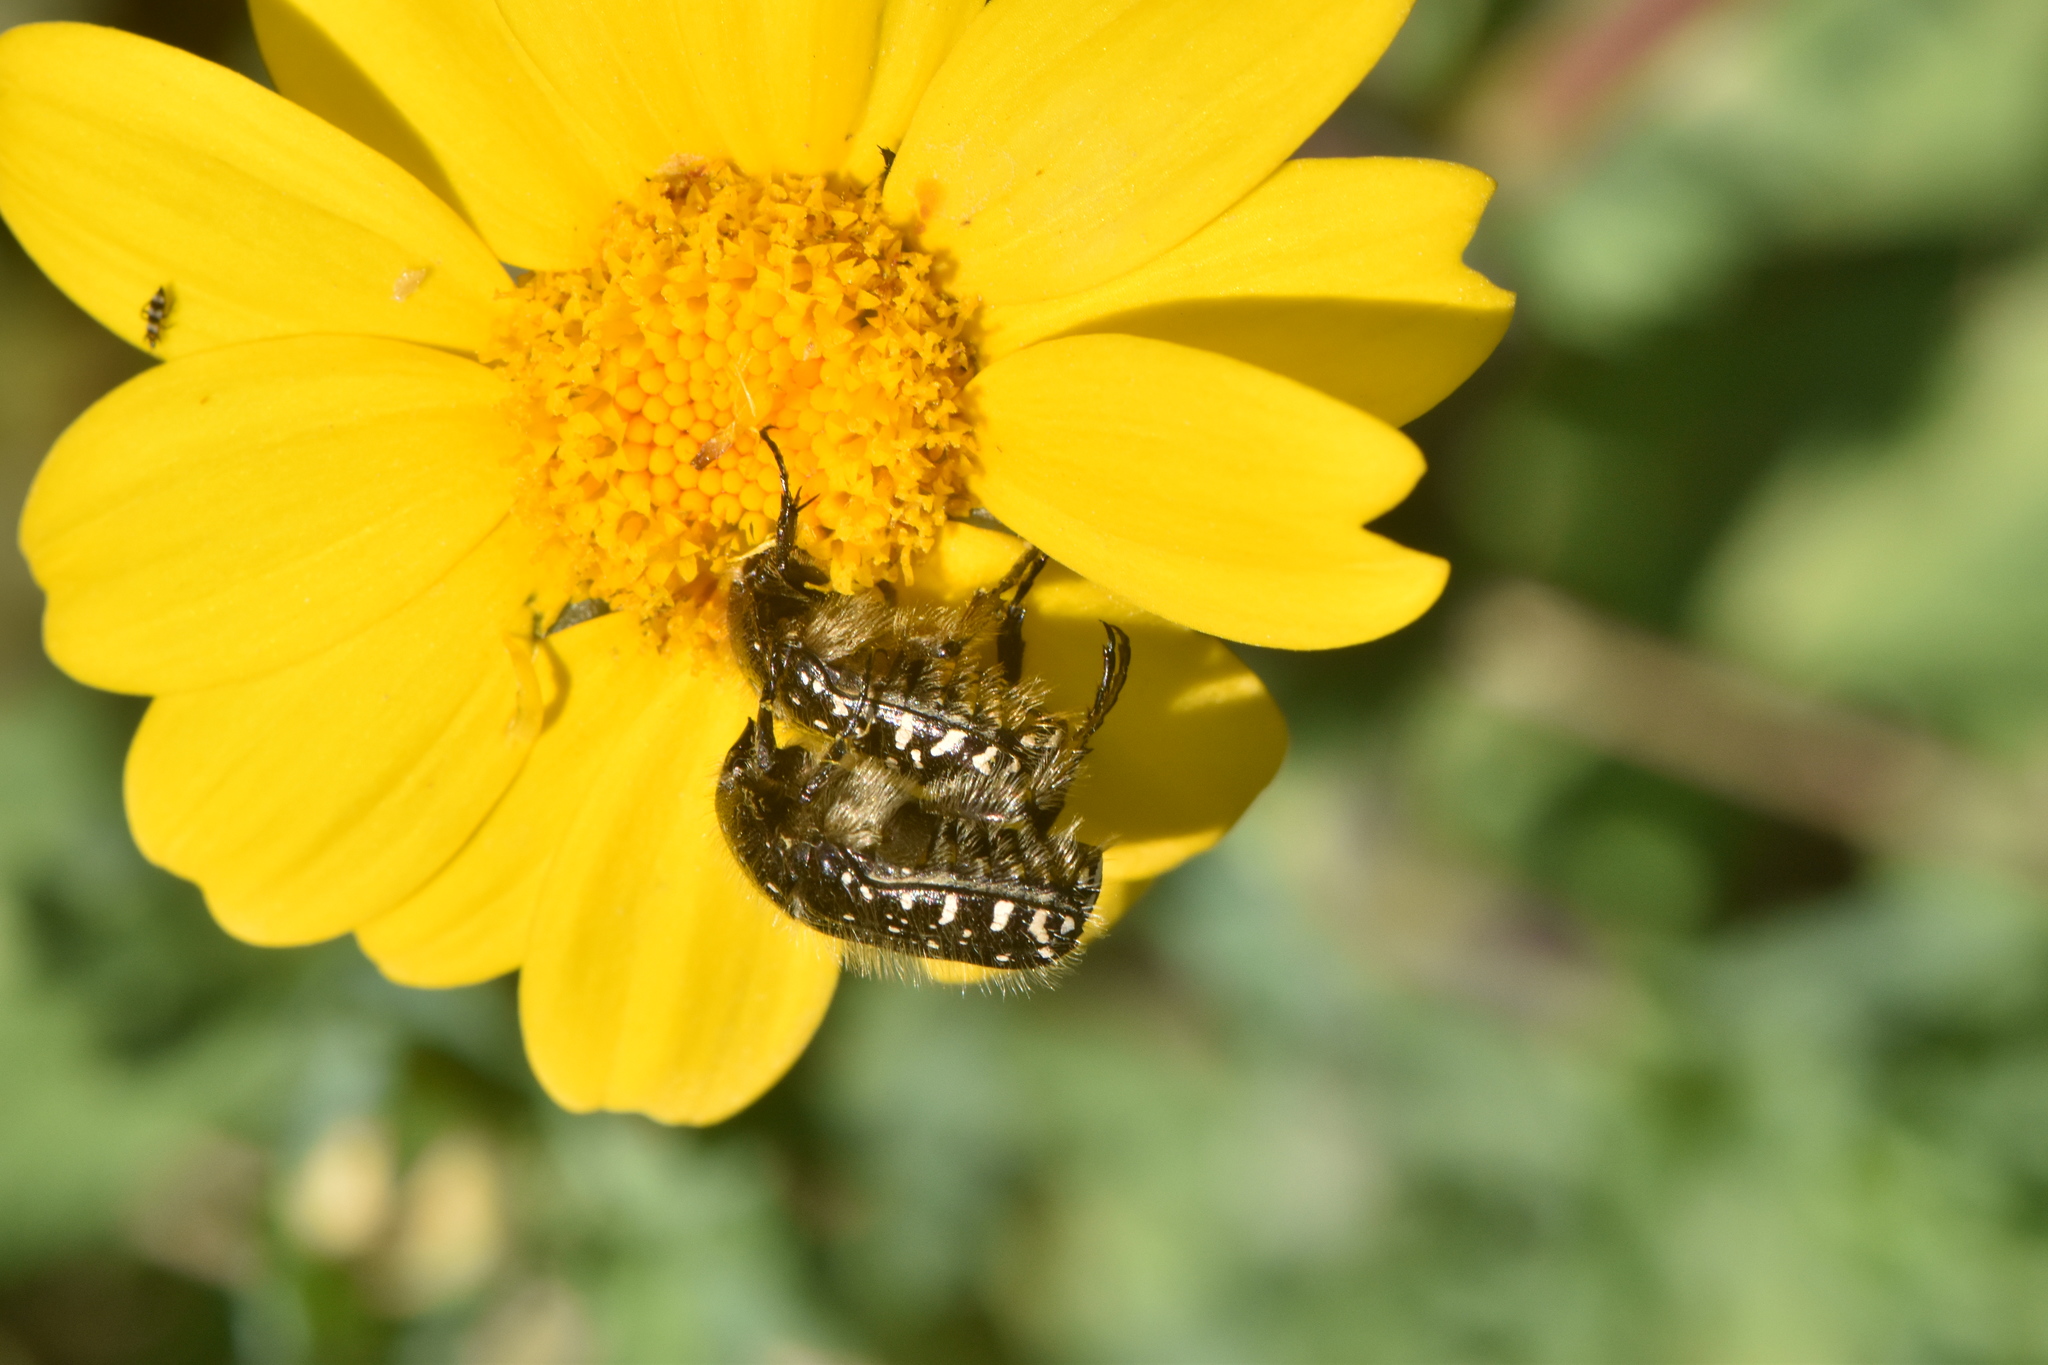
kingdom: Animalia
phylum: Arthropoda
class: Insecta
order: Coleoptera
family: Scarabaeidae
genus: Oxythyrea
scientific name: Oxythyrea funesta
